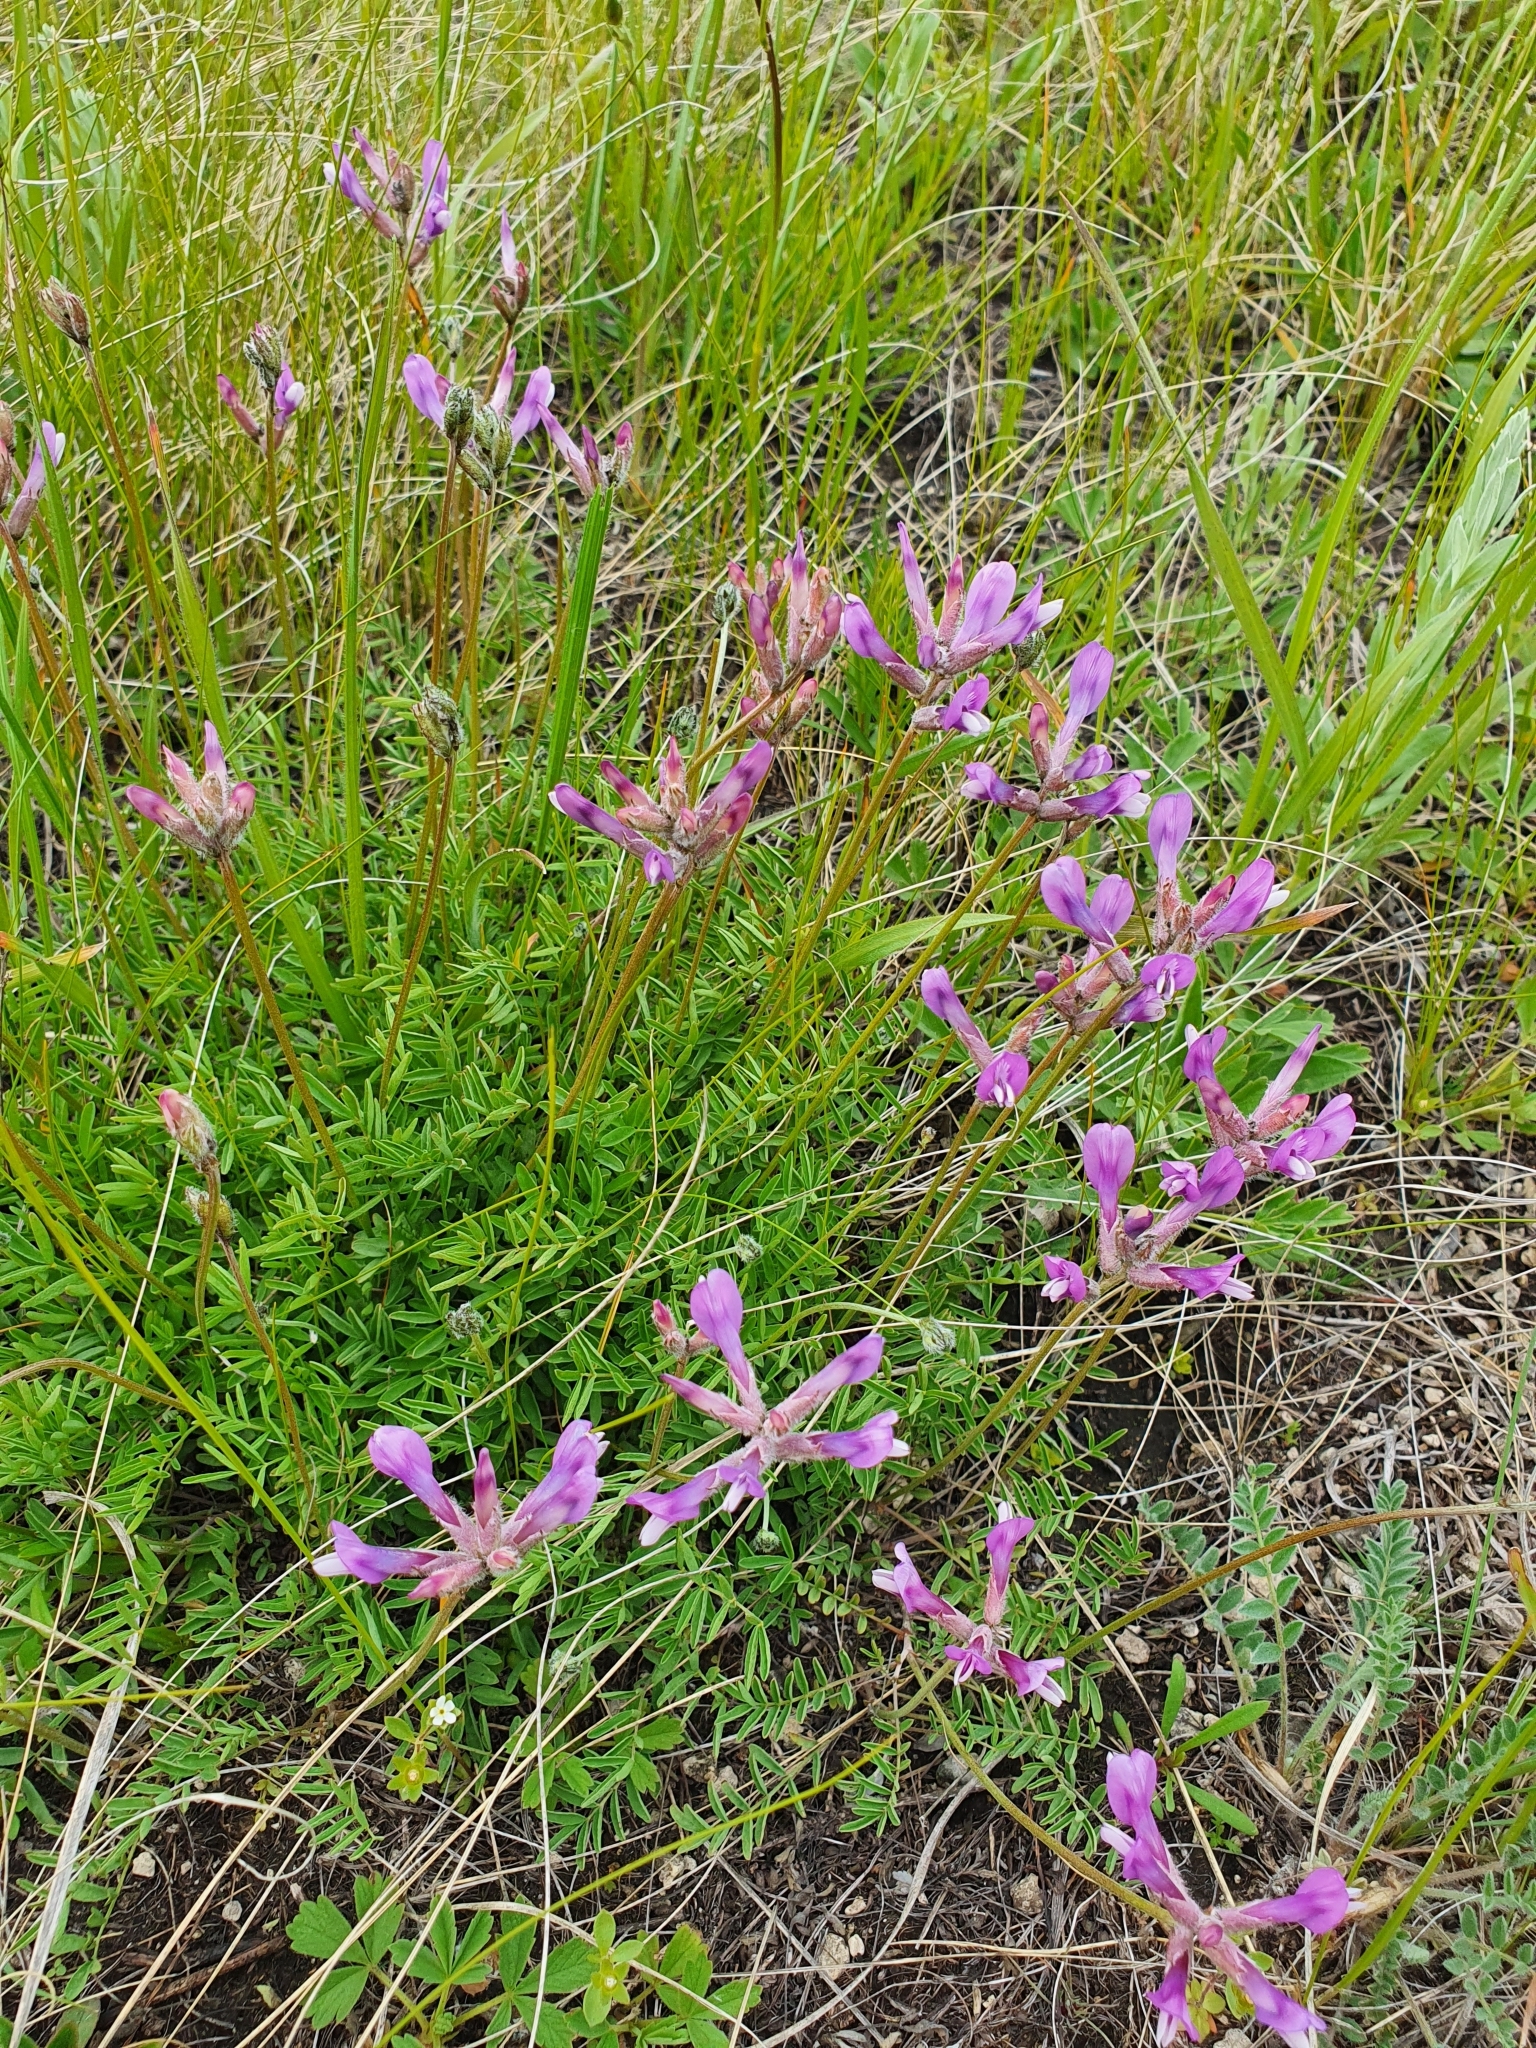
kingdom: Plantae
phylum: Tracheophyta
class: Magnoliopsida
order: Fabales
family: Fabaceae
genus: Astragalus
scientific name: Astragalus macropus
